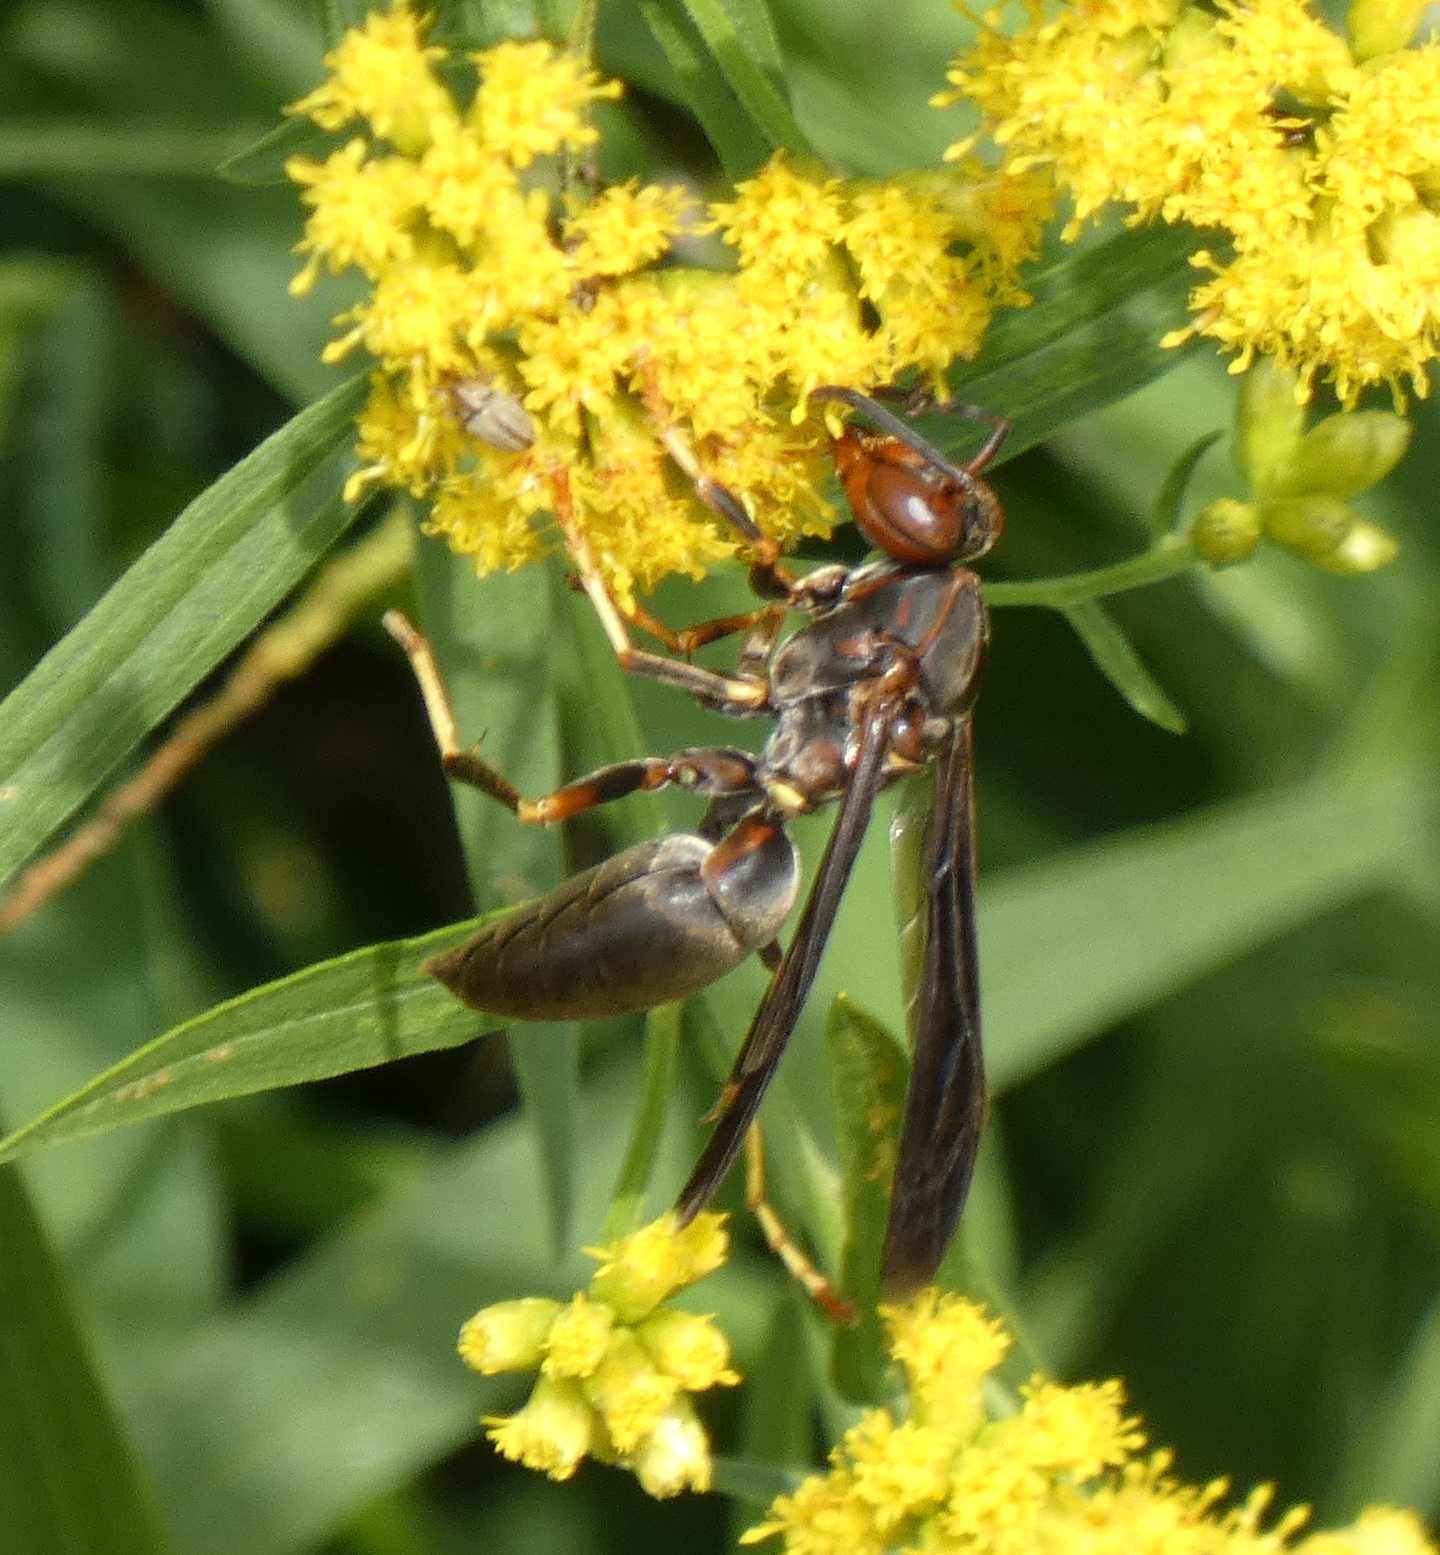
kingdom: Animalia
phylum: Arthropoda
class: Insecta
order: Hymenoptera
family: Eumenidae
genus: Polistes
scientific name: Polistes metricus
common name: Metric paper wasp
